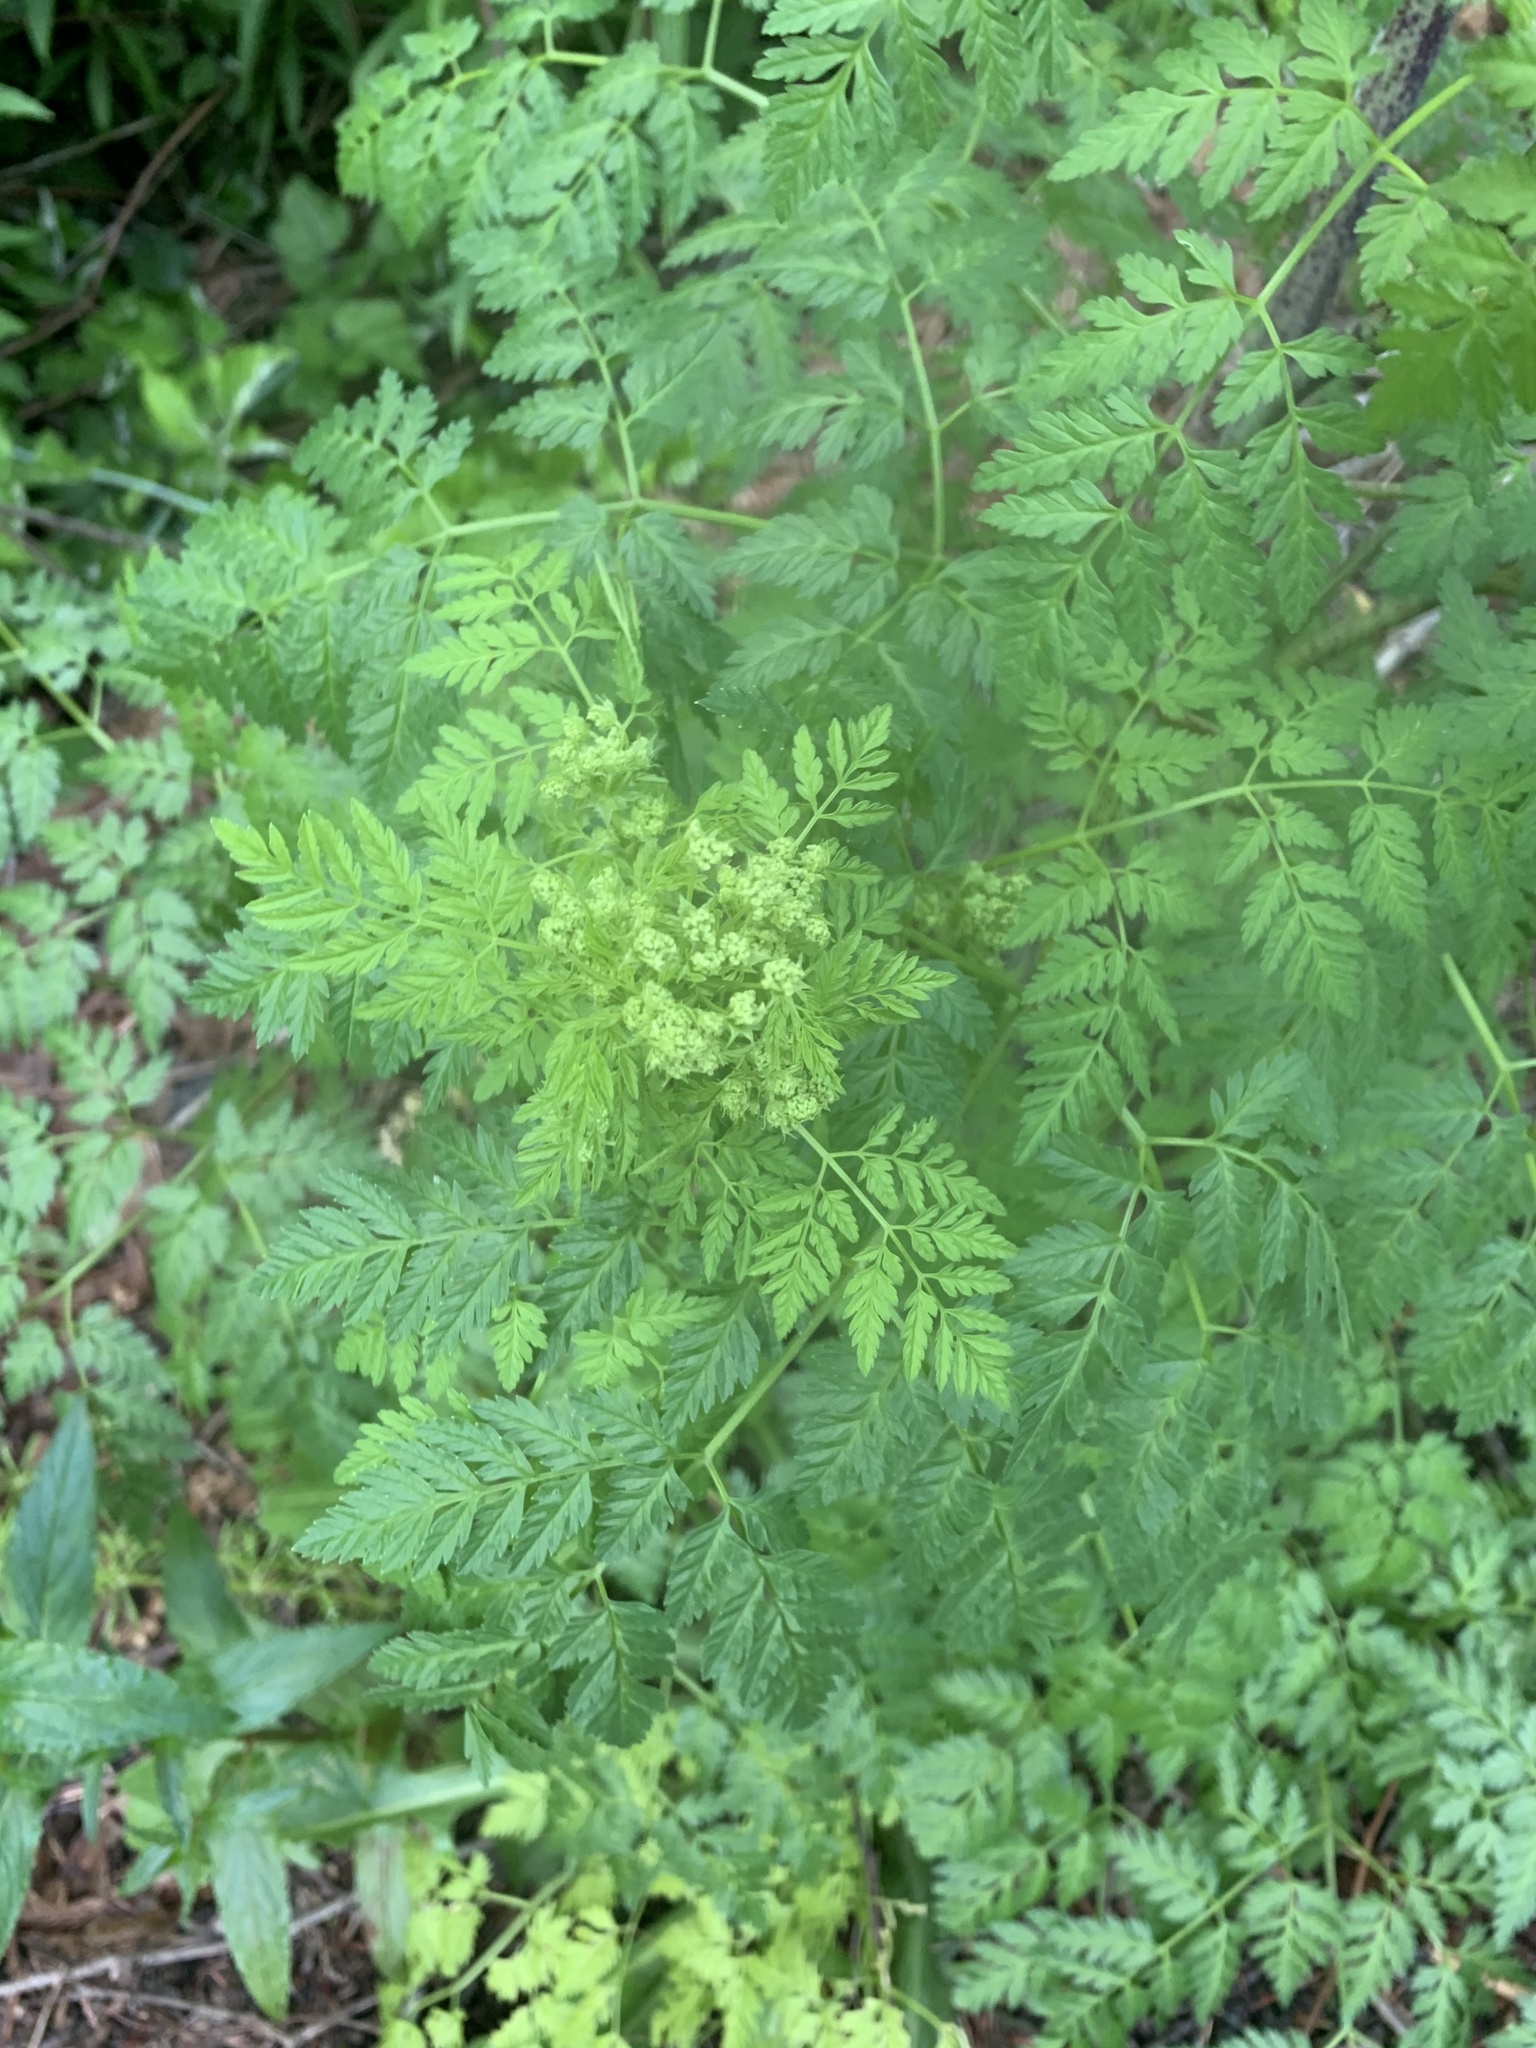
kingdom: Plantae
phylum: Tracheophyta
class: Magnoliopsida
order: Apiales
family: Apiaceae
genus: Conium
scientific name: Conium maculatum
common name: Hemlock
